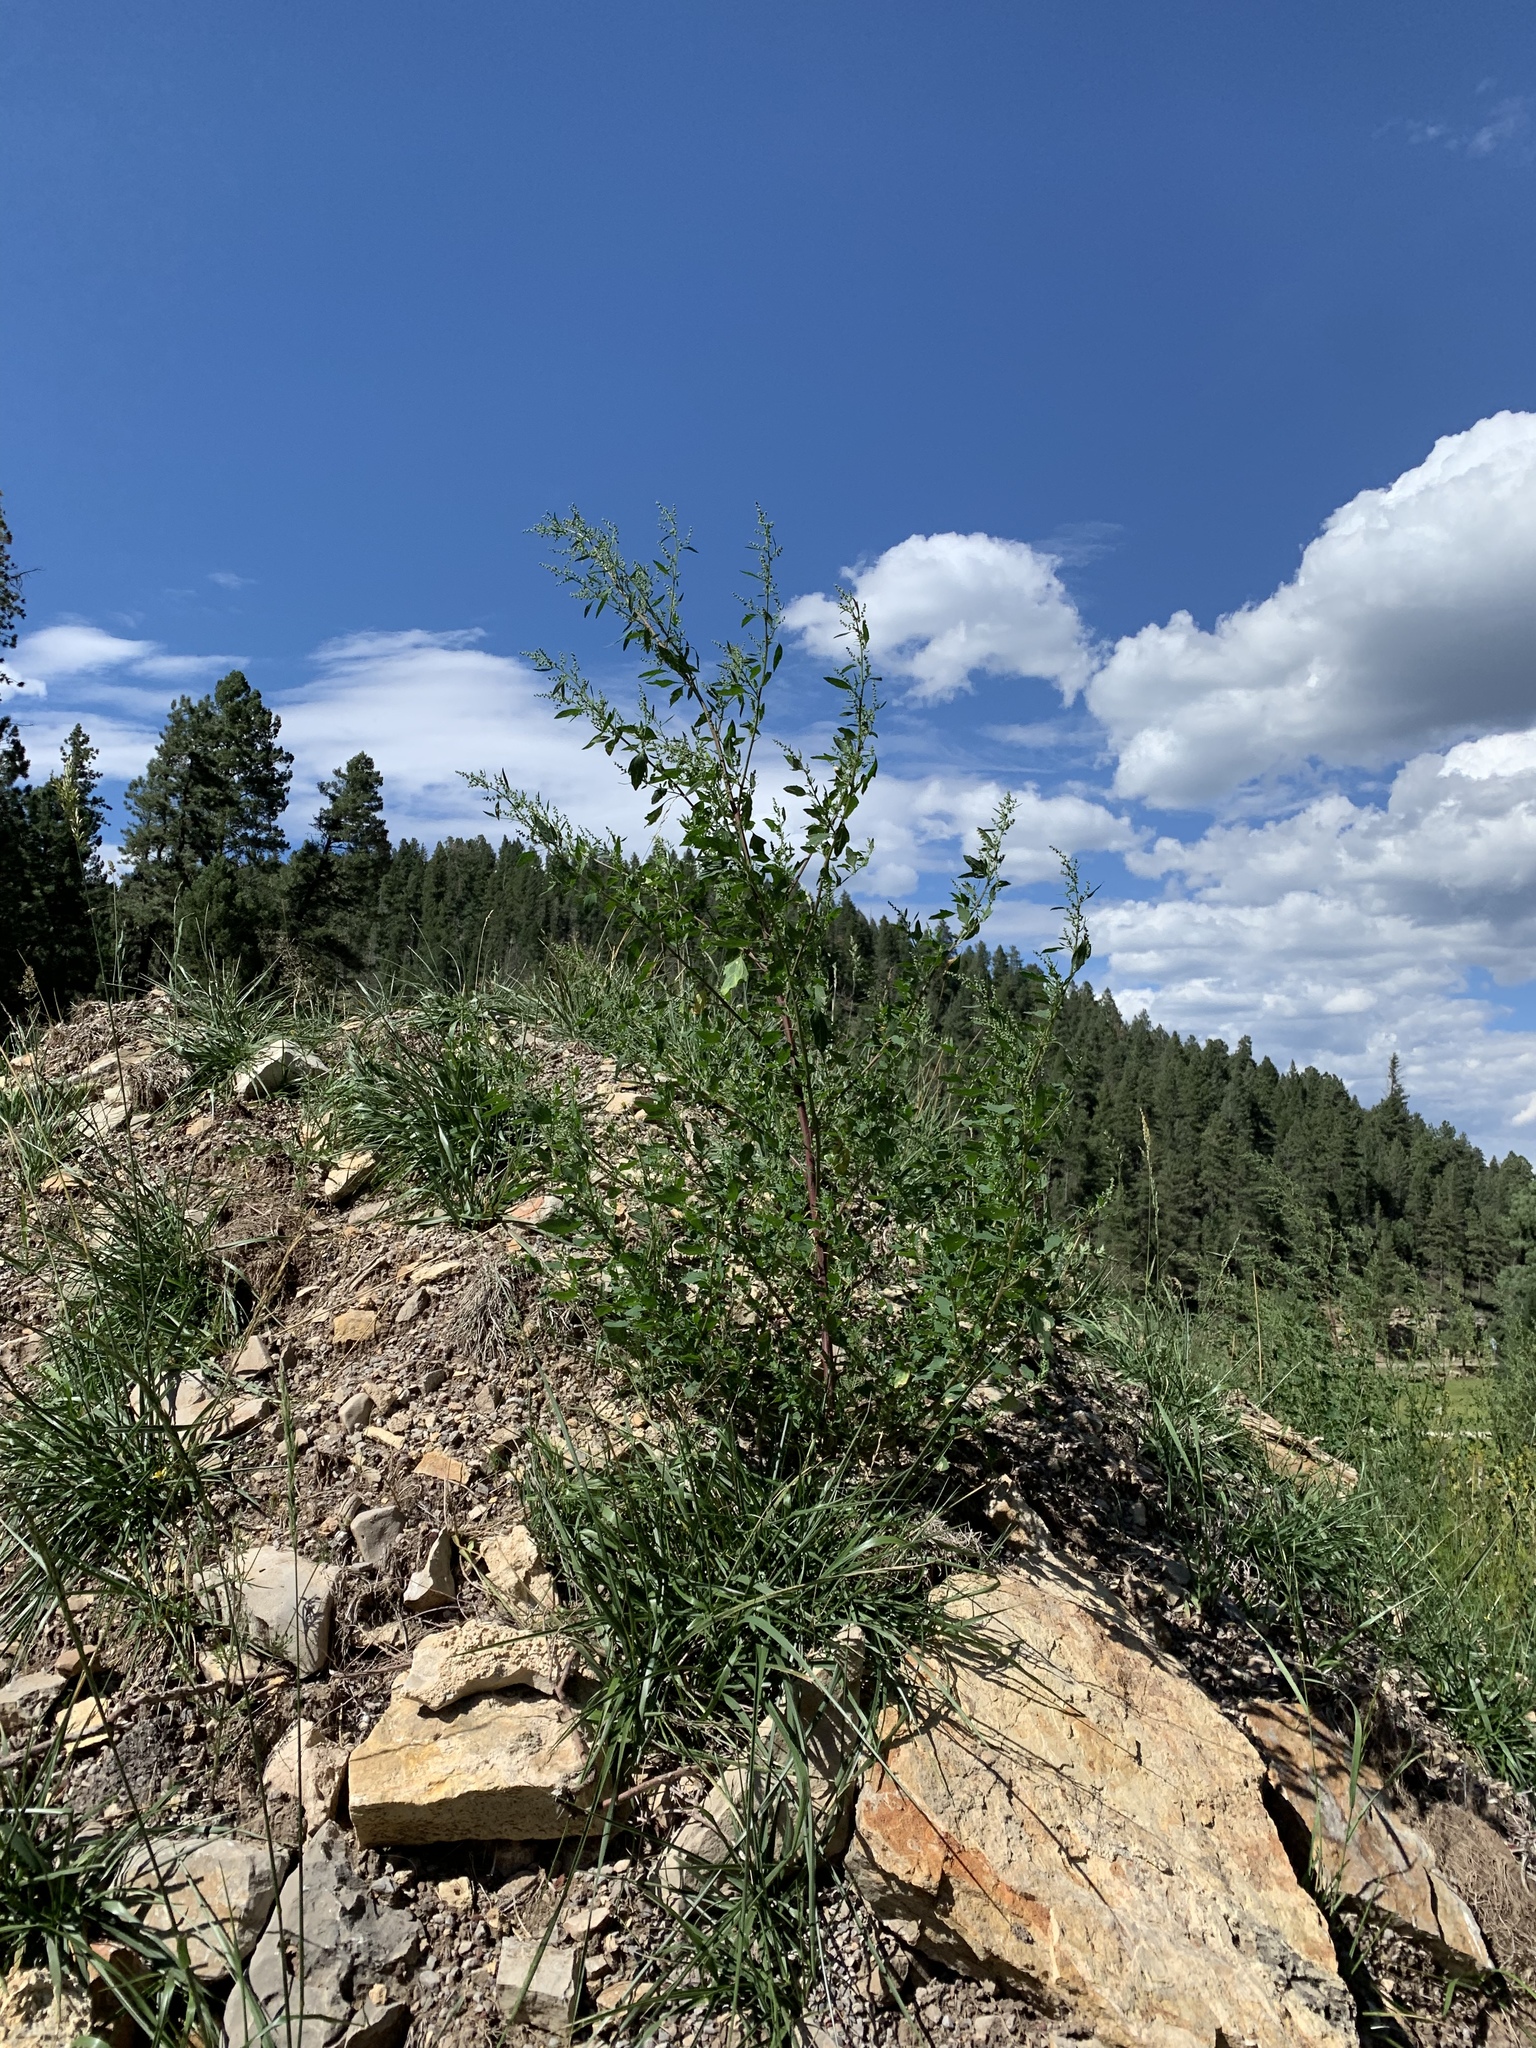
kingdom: Plantae
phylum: Tracheophyta
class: Magnoliopsida
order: Caryophyllales
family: Amaranthaceae
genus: Chenopodium
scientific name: Chenopodium album
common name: Fat-hen
